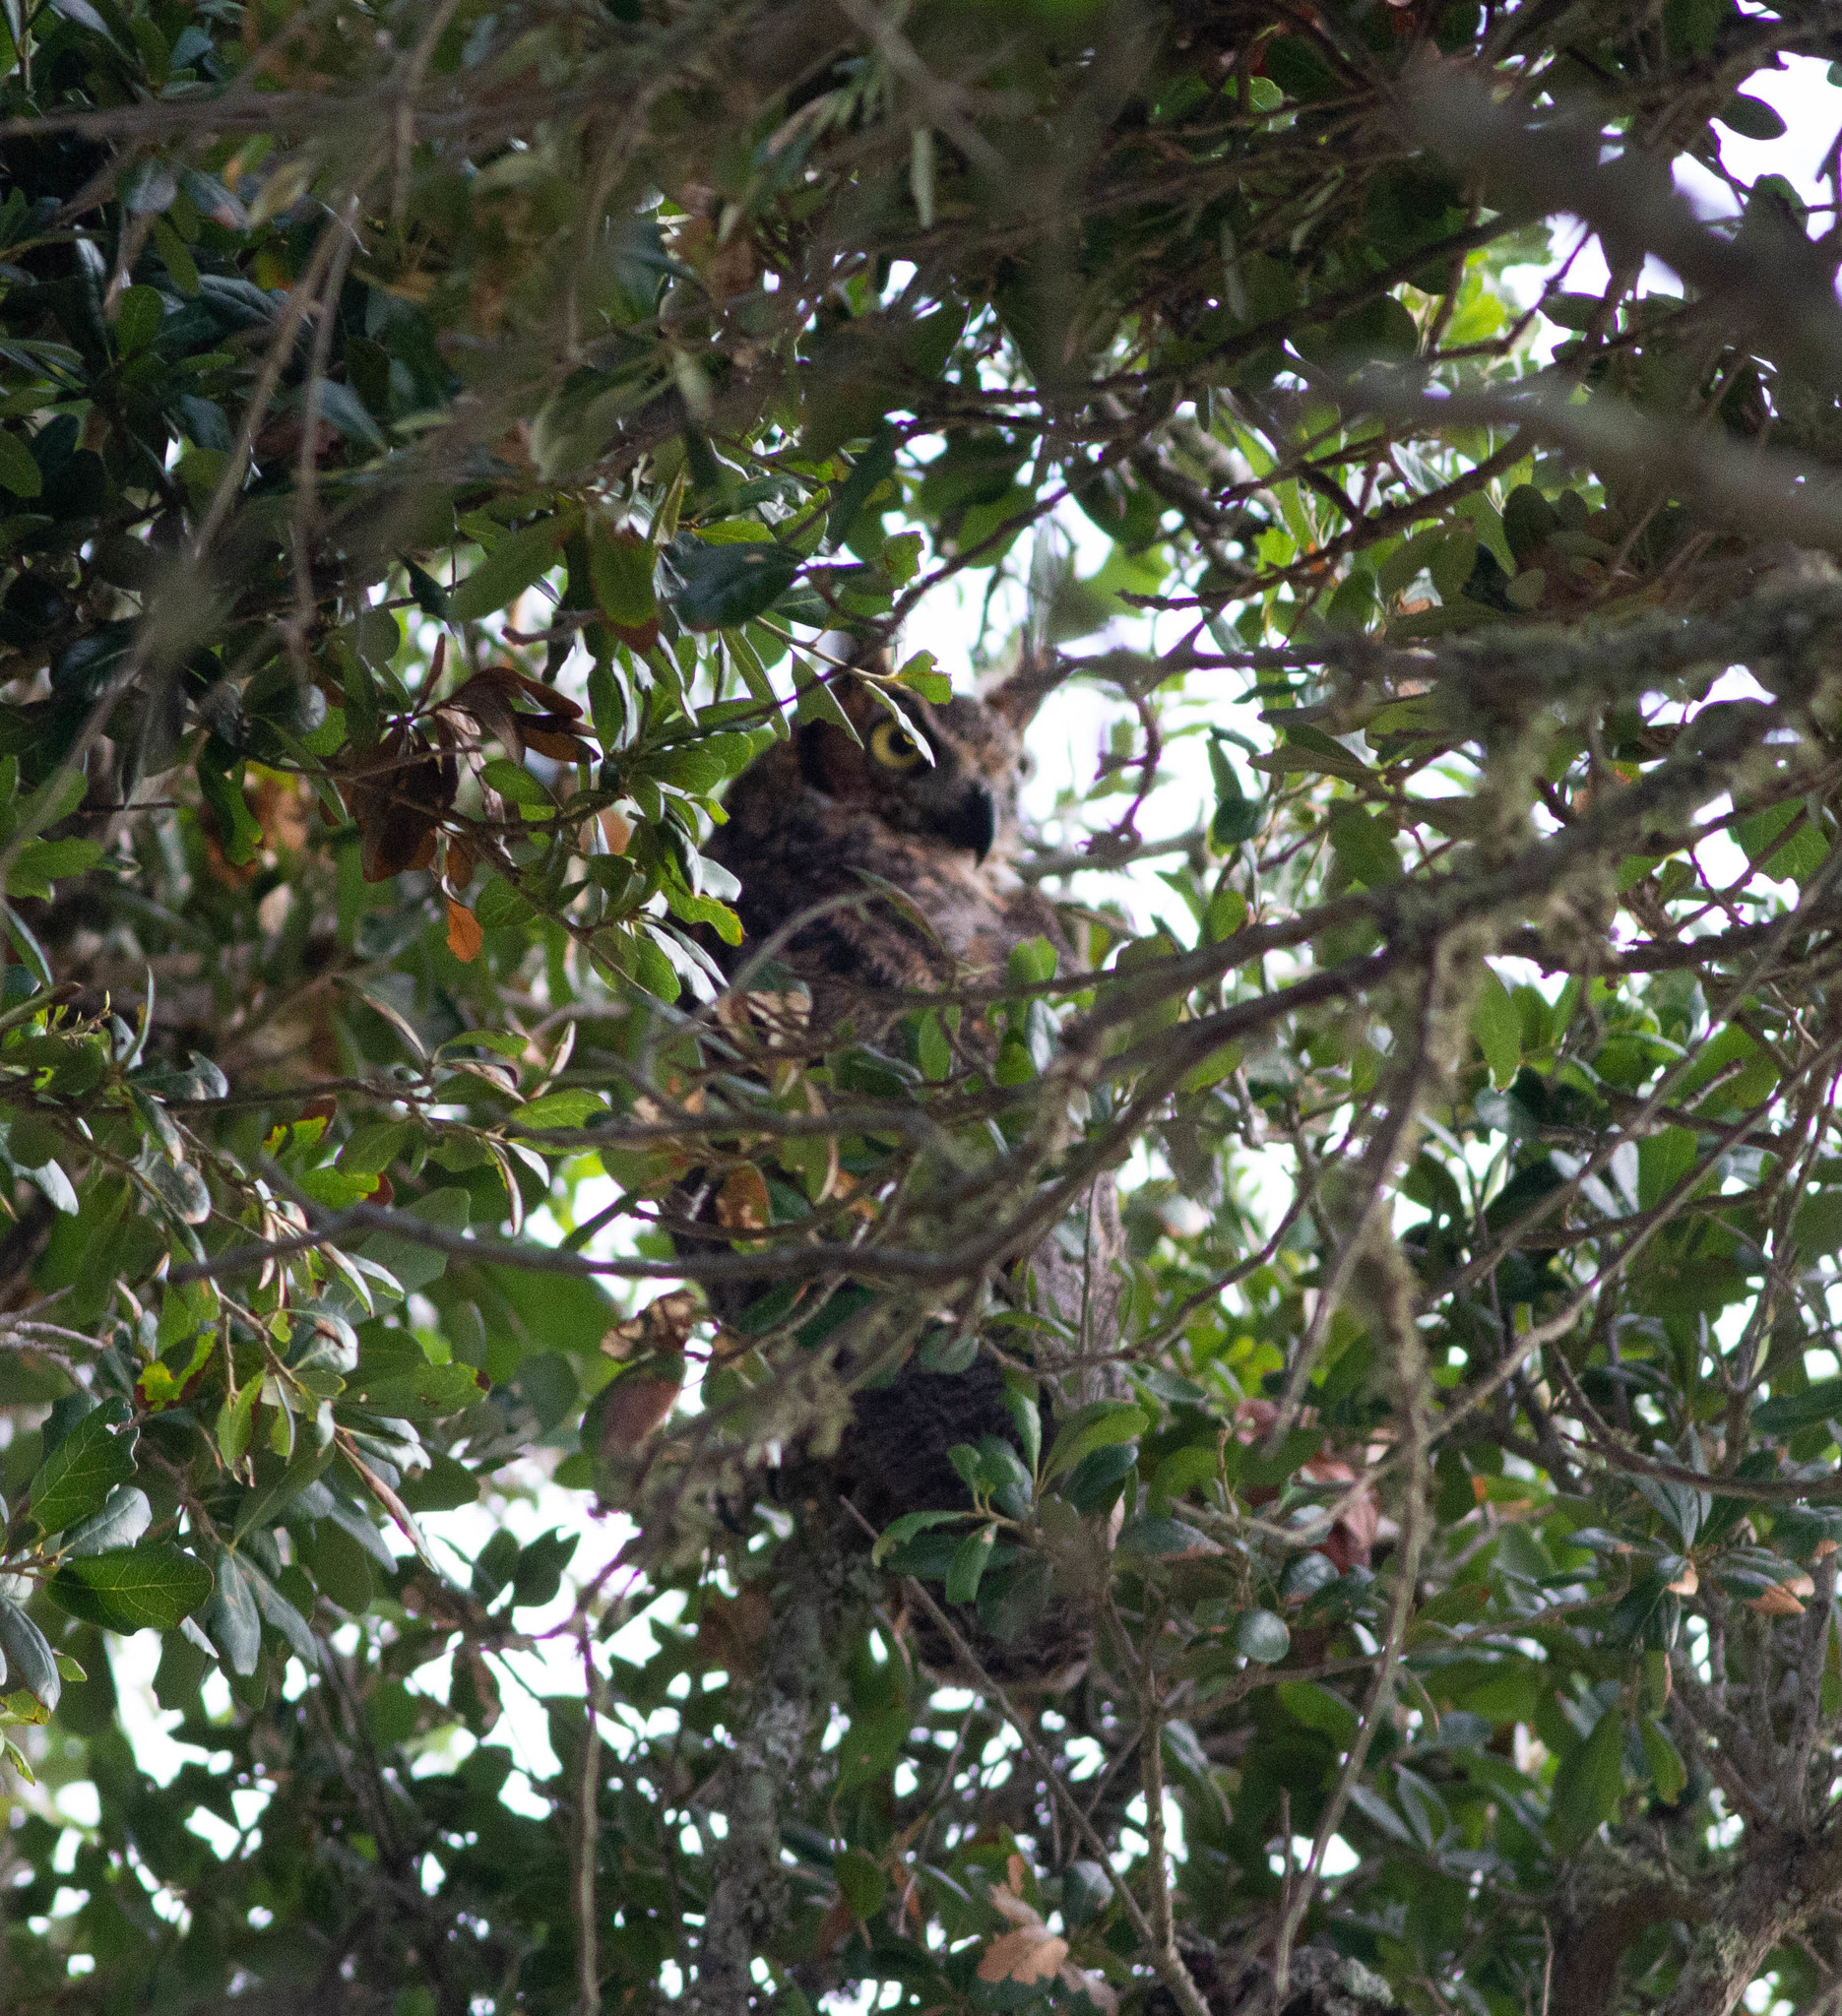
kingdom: Animalia
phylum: Chordata
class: Aves
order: Strigiformes
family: Strigidae
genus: Bubo
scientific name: Bubo virginianus
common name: Great horned owl
